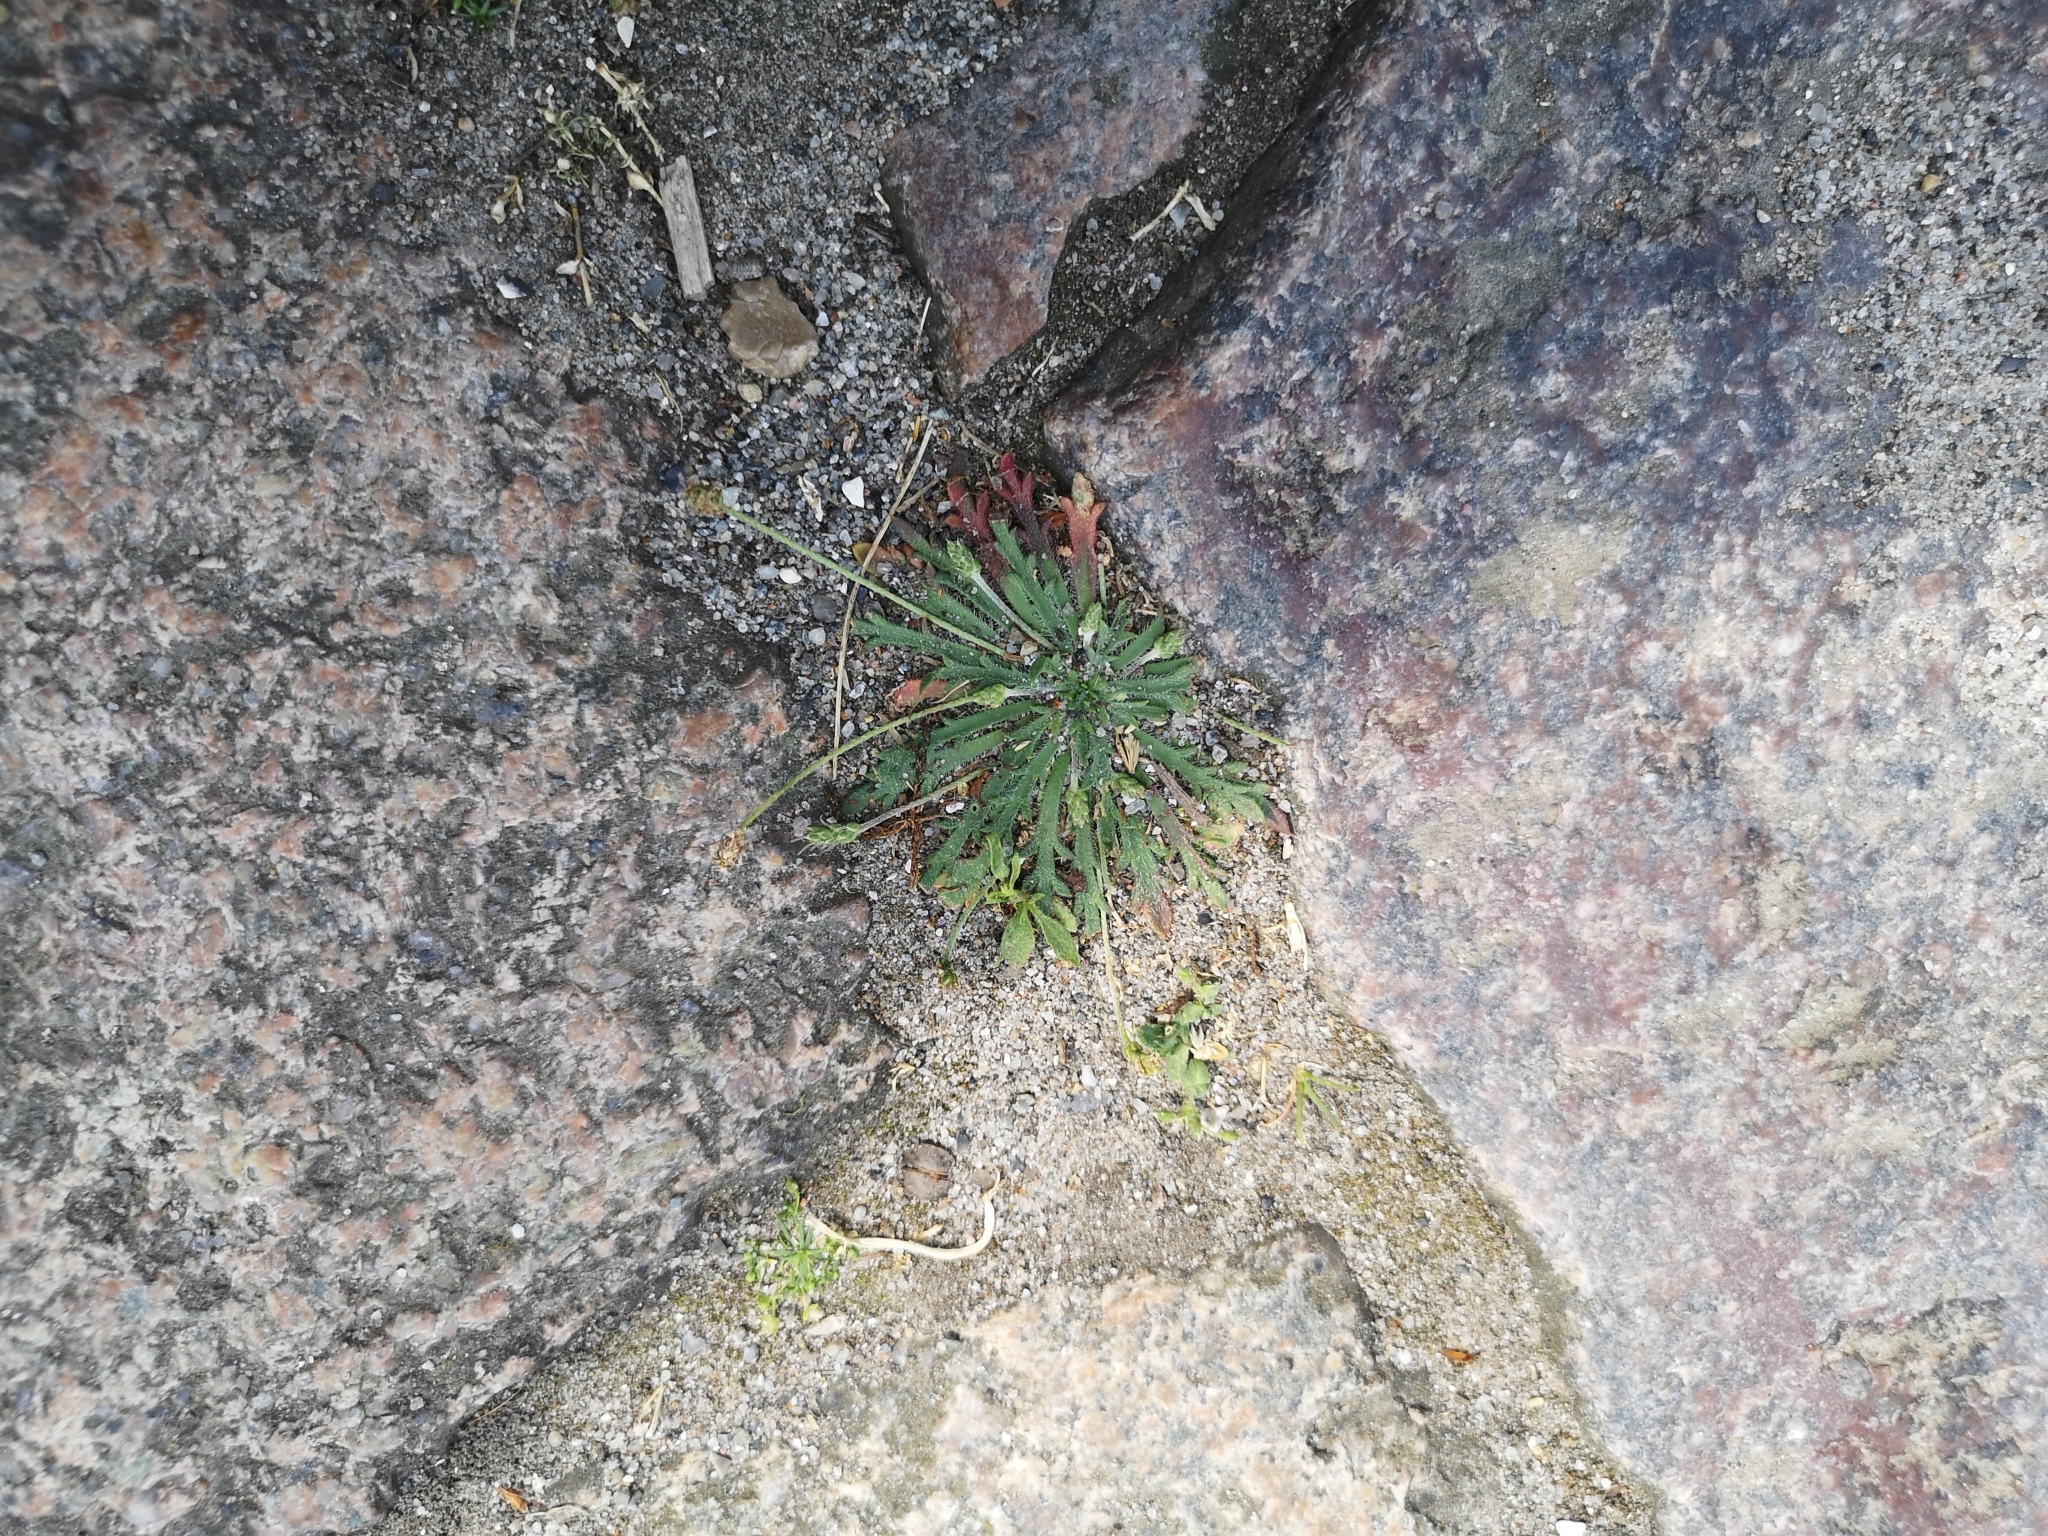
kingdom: Plantae
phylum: Tracheophyta
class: Magnoliopsida
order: Lamiales
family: Plantaginaceae
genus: Plantago
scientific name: Plantago coronopus
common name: Buck's-horn plantain
